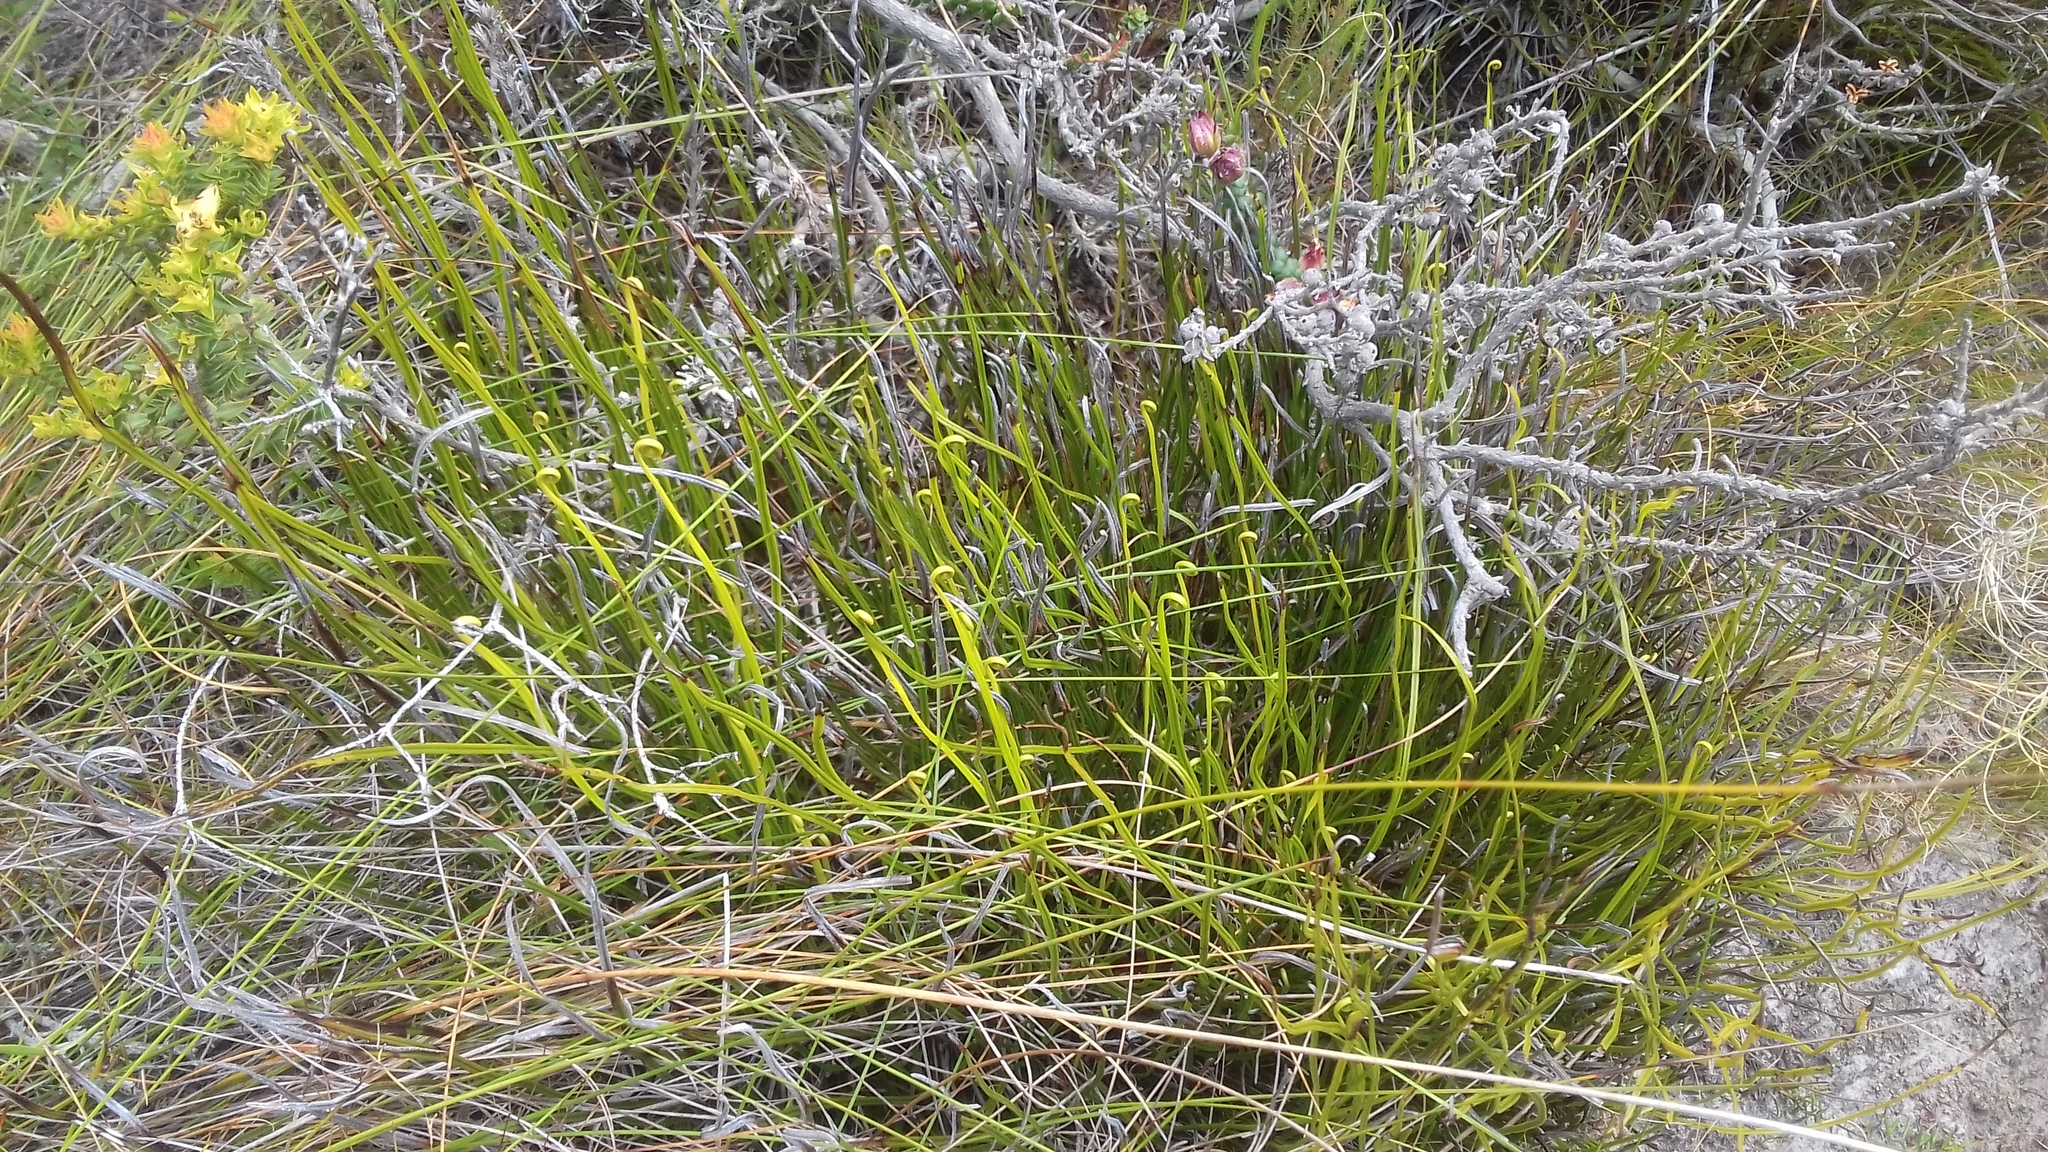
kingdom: Plantae
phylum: Tracheophyta
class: Polypodiopsida
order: Schizaeales
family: Schizaeaceae
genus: Schizaea
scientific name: Schizaea pectinata
